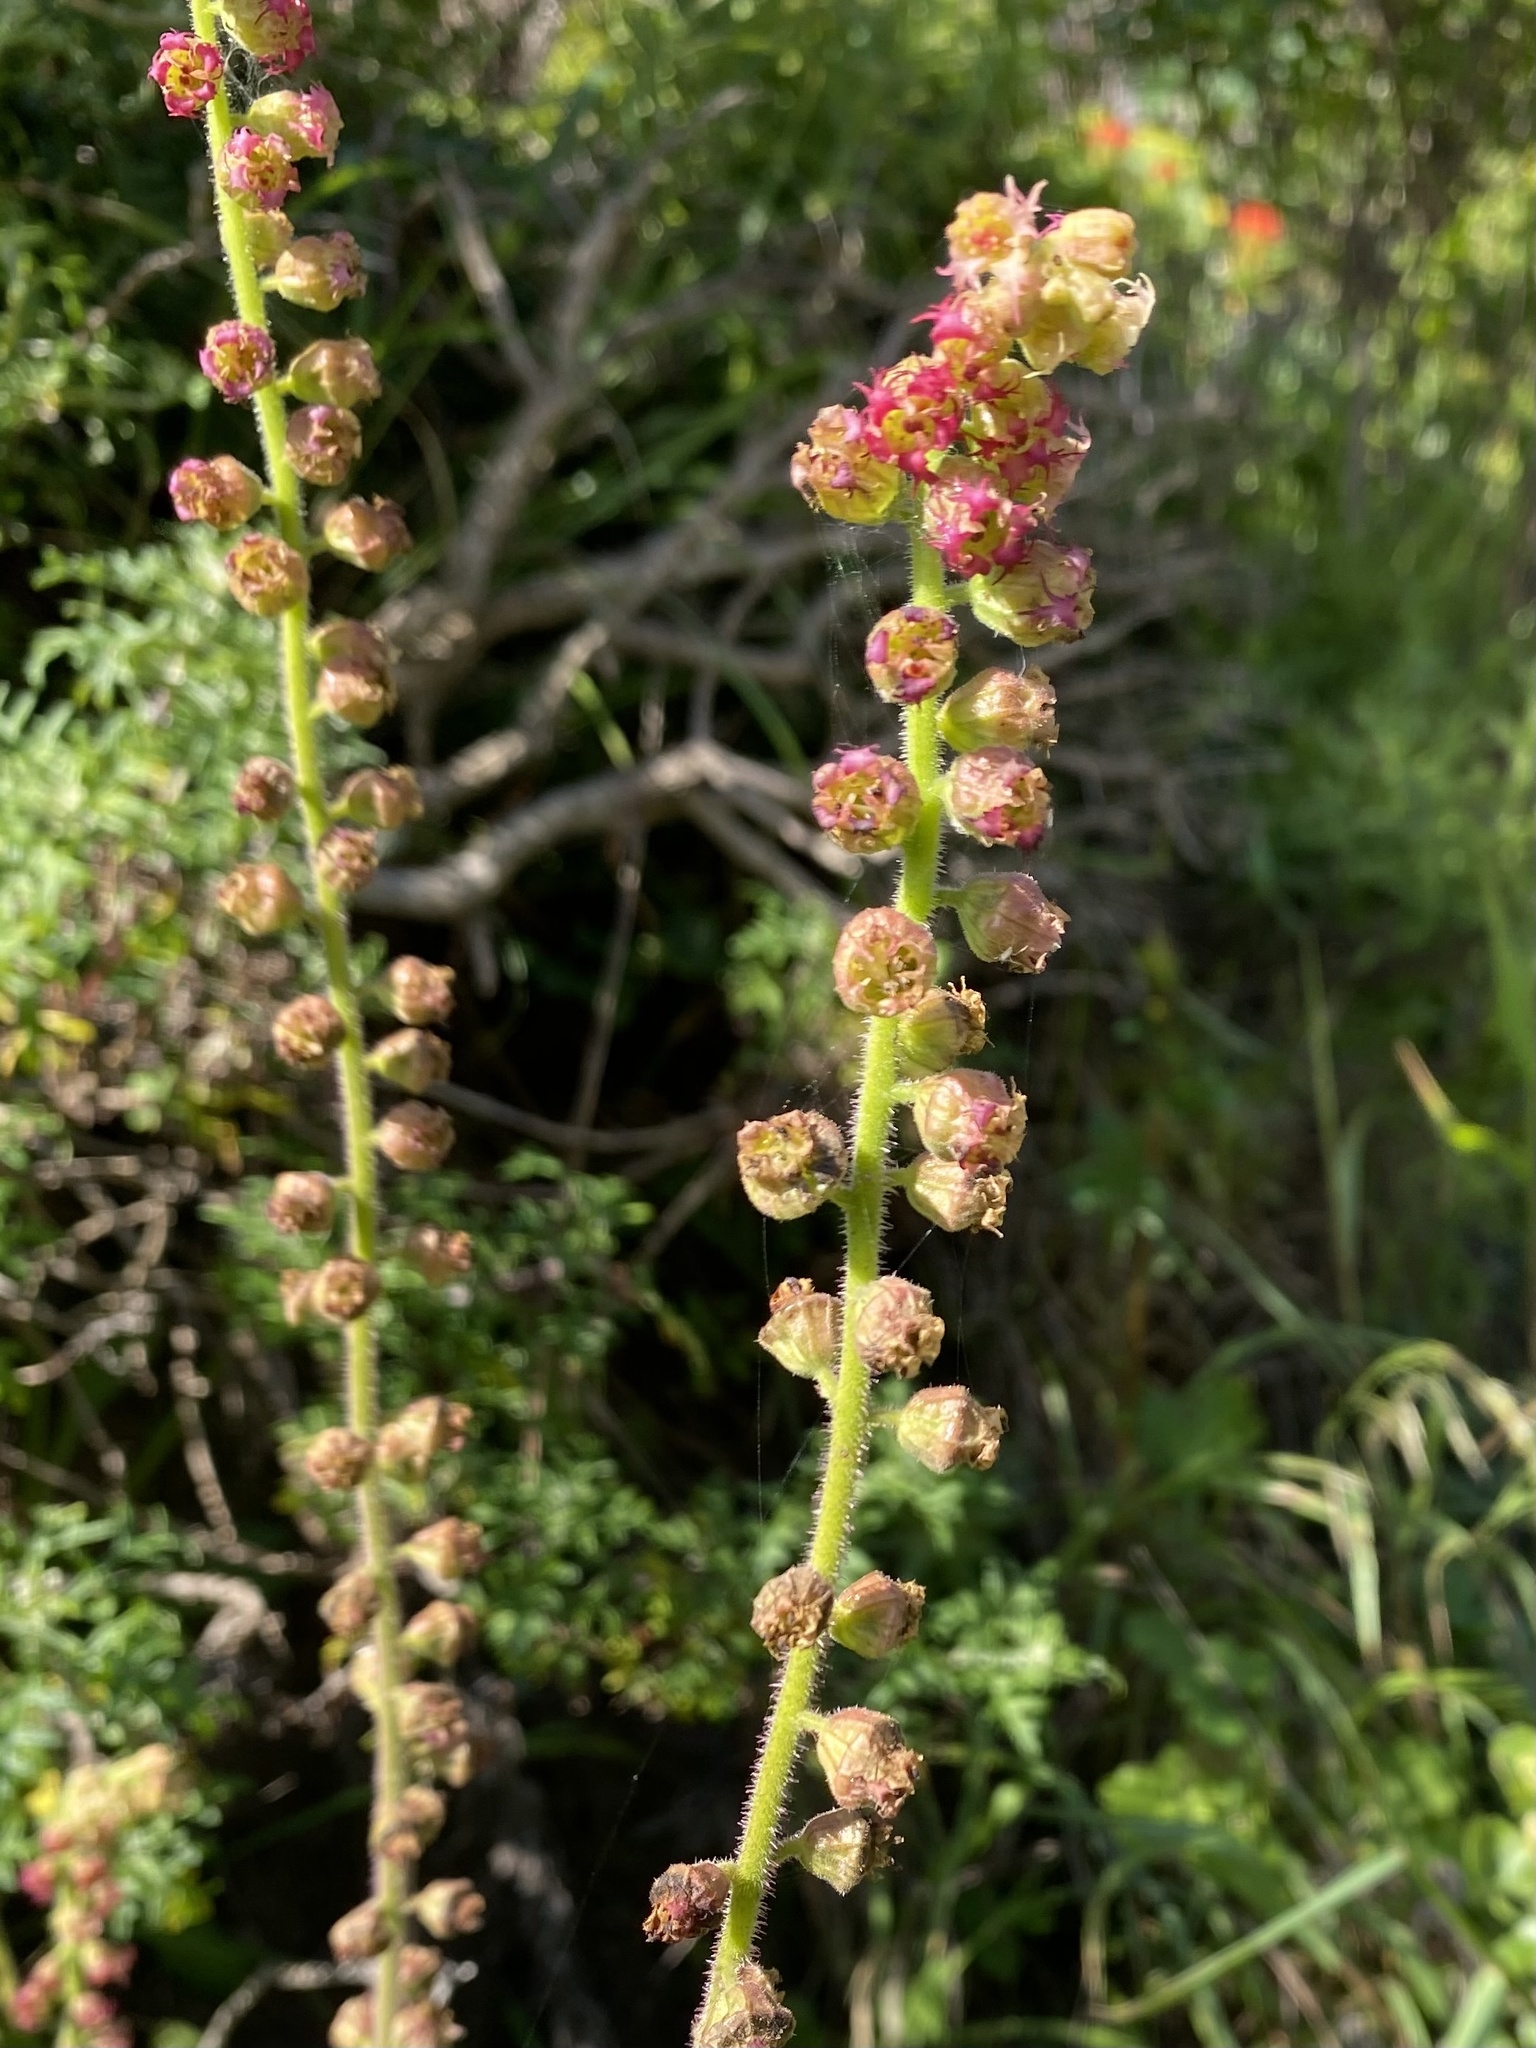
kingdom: Plantae
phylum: Tracheophyta
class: Magnoliopsida
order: Saxifragales
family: Saxifragaceae
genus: Tellima
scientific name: Tellima grandiflora
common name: Fringecups
